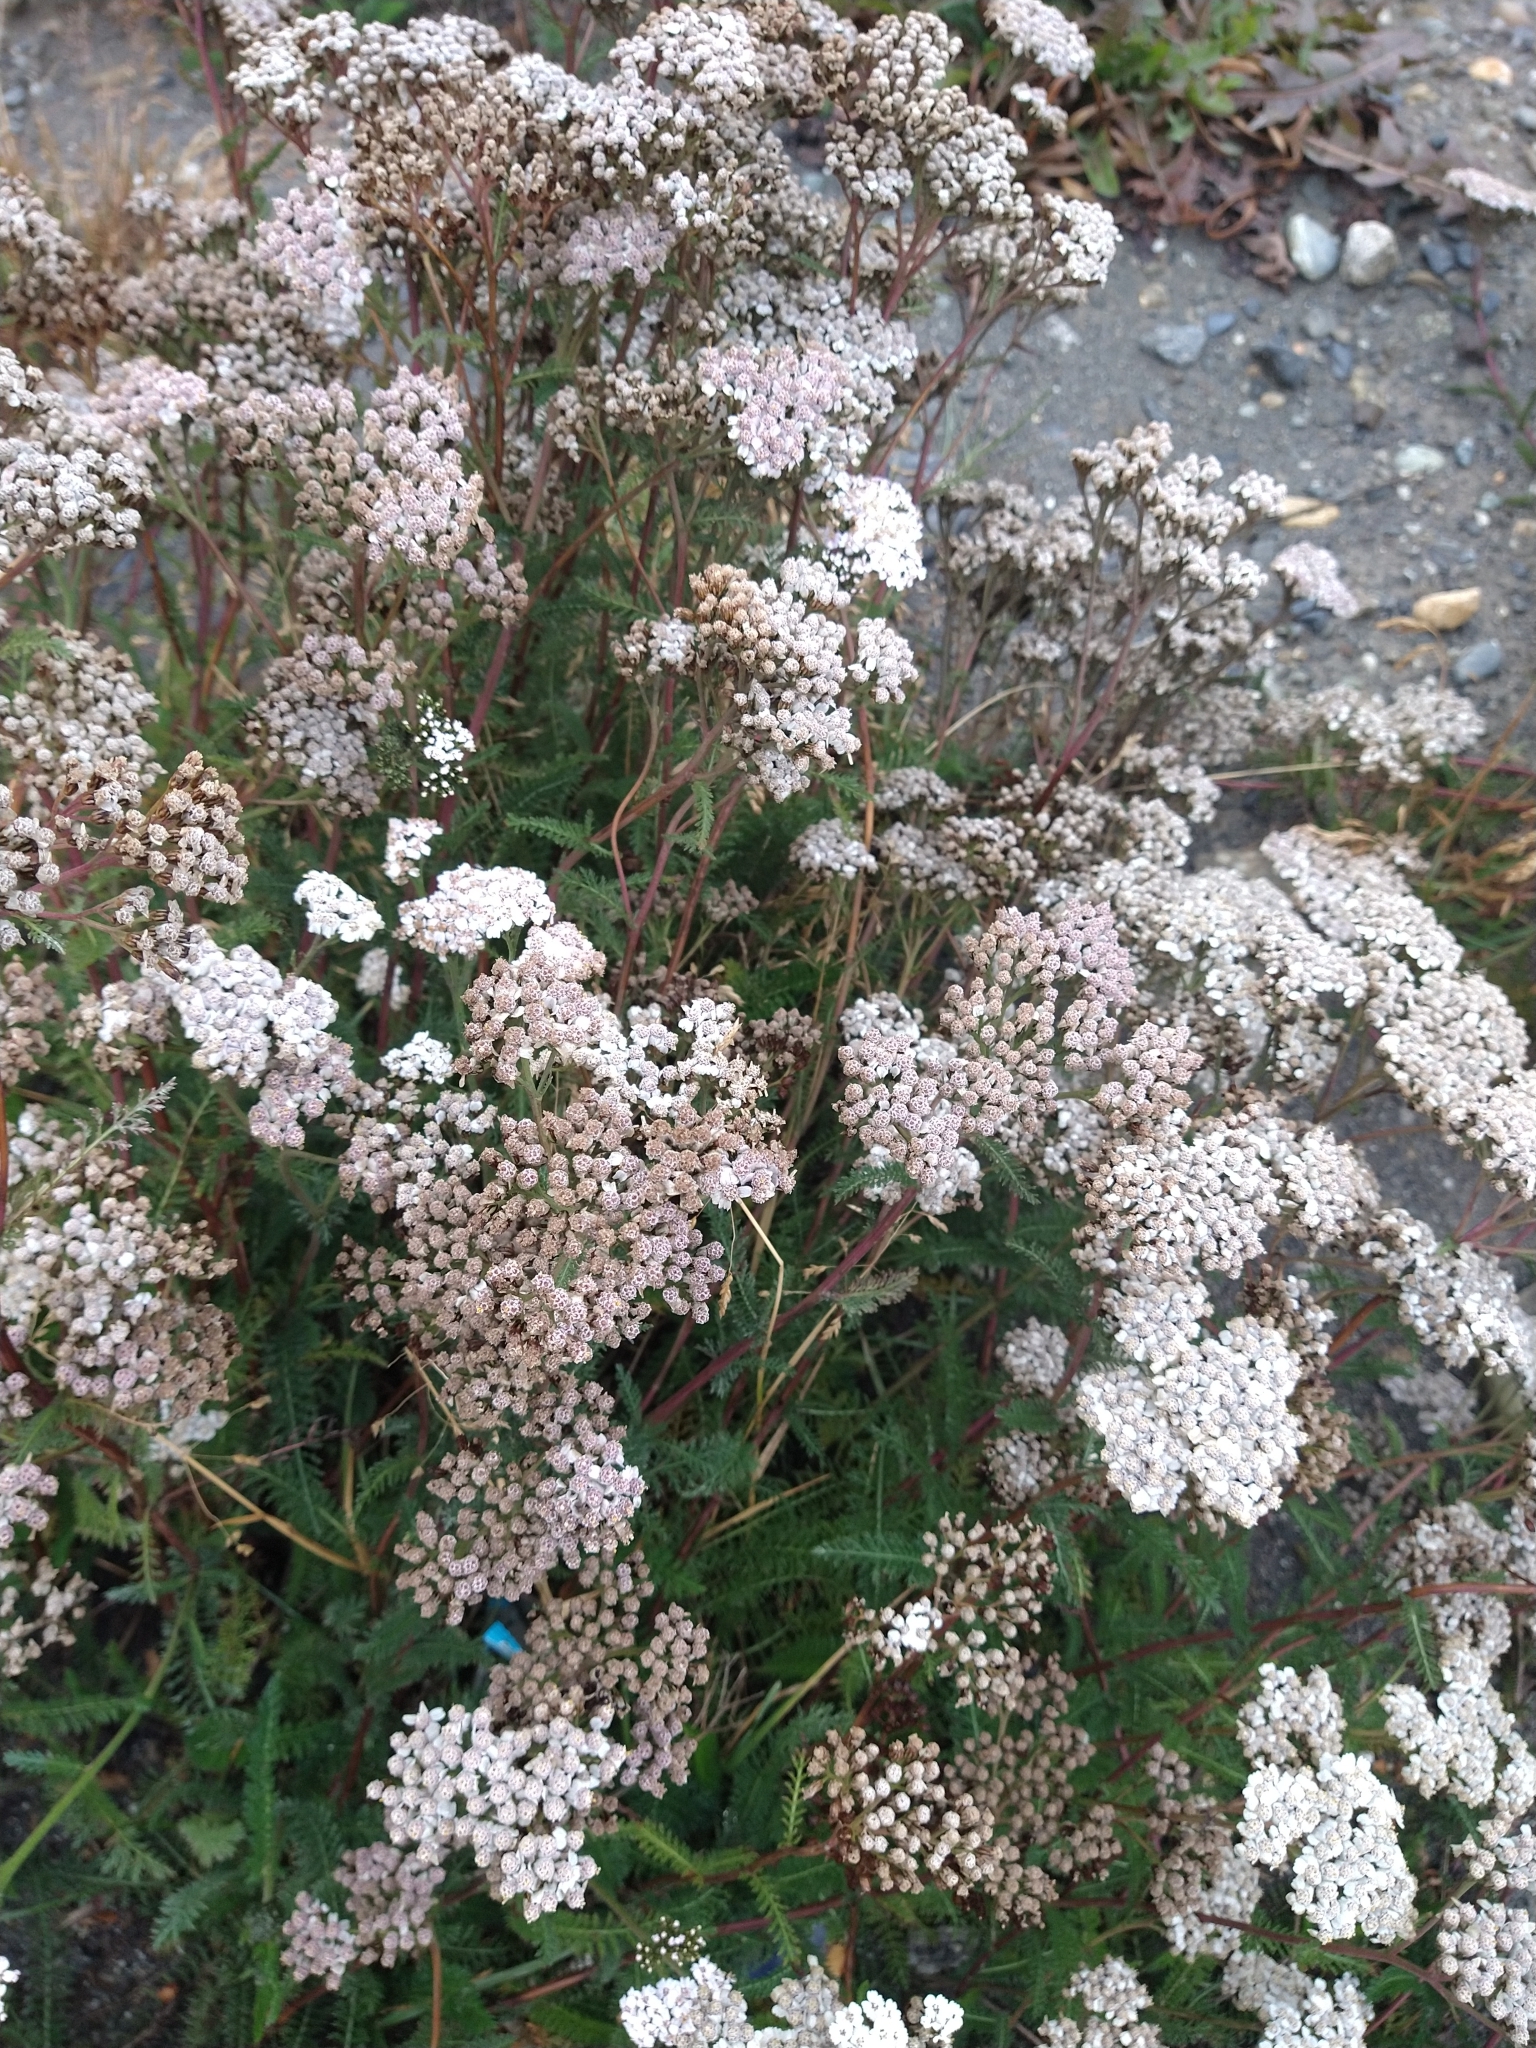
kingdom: Plantae
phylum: Tracheophyta
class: Magnoliopsida
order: Asterales
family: Asteraceae
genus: Achillea
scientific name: Achillea millefolium
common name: Yarrow
